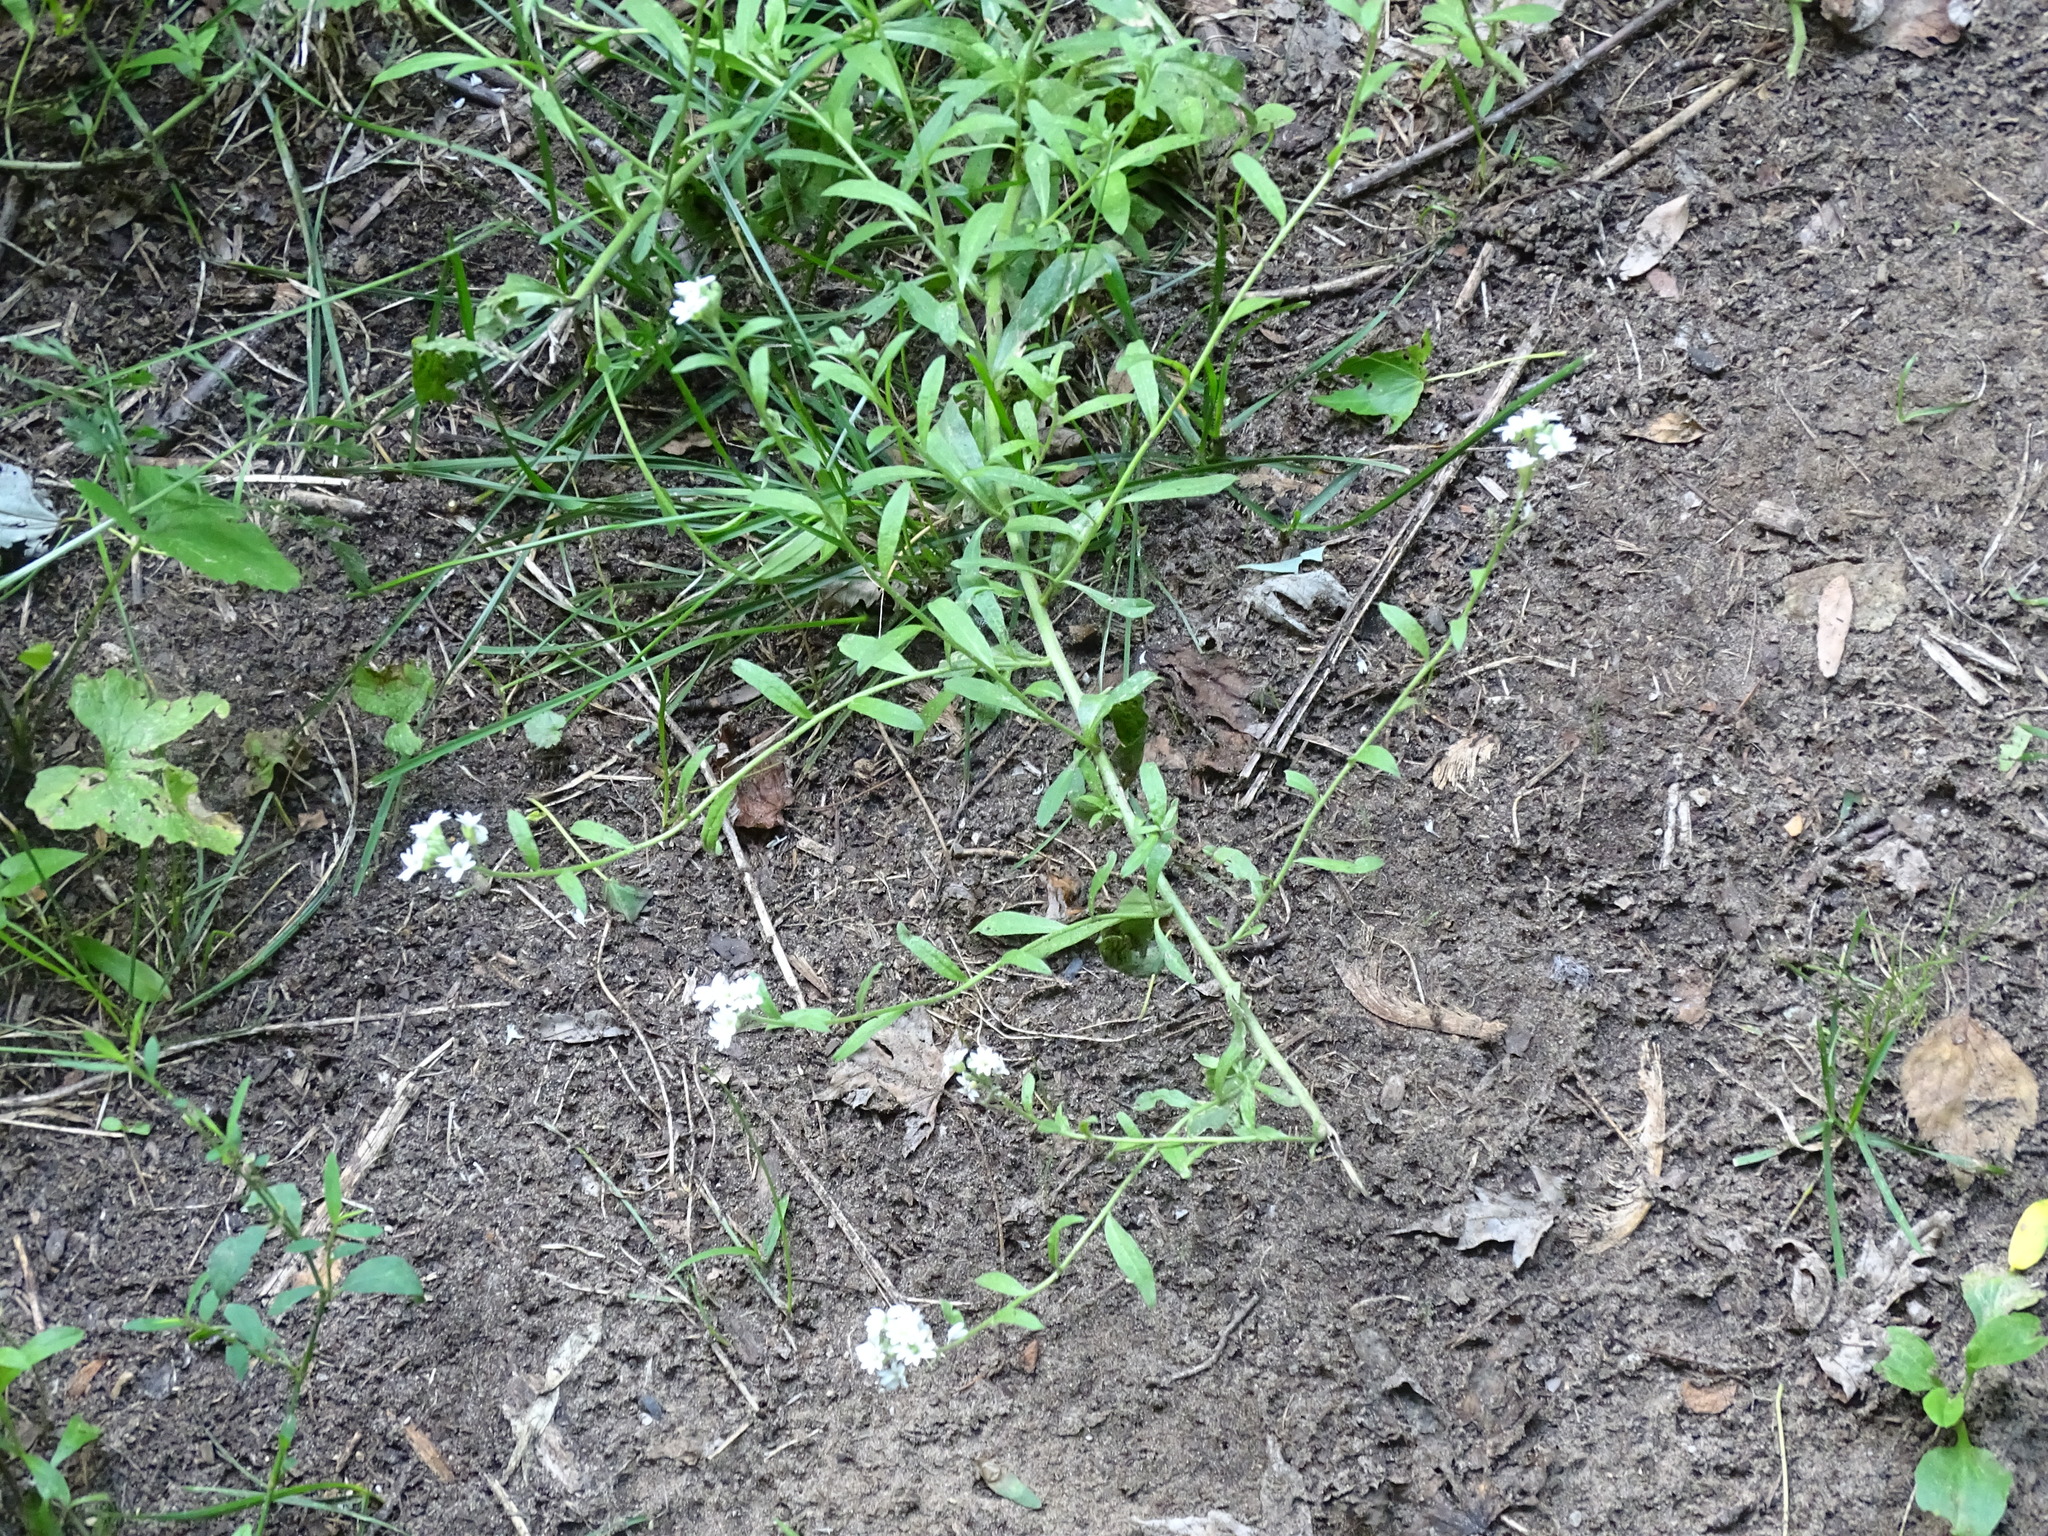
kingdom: Plantae
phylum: Tracheophyta
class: Magnoliopsida
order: Brassicales
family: Brassicaceae
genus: Berteroa
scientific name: Berteroa incana
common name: Hoary alison
